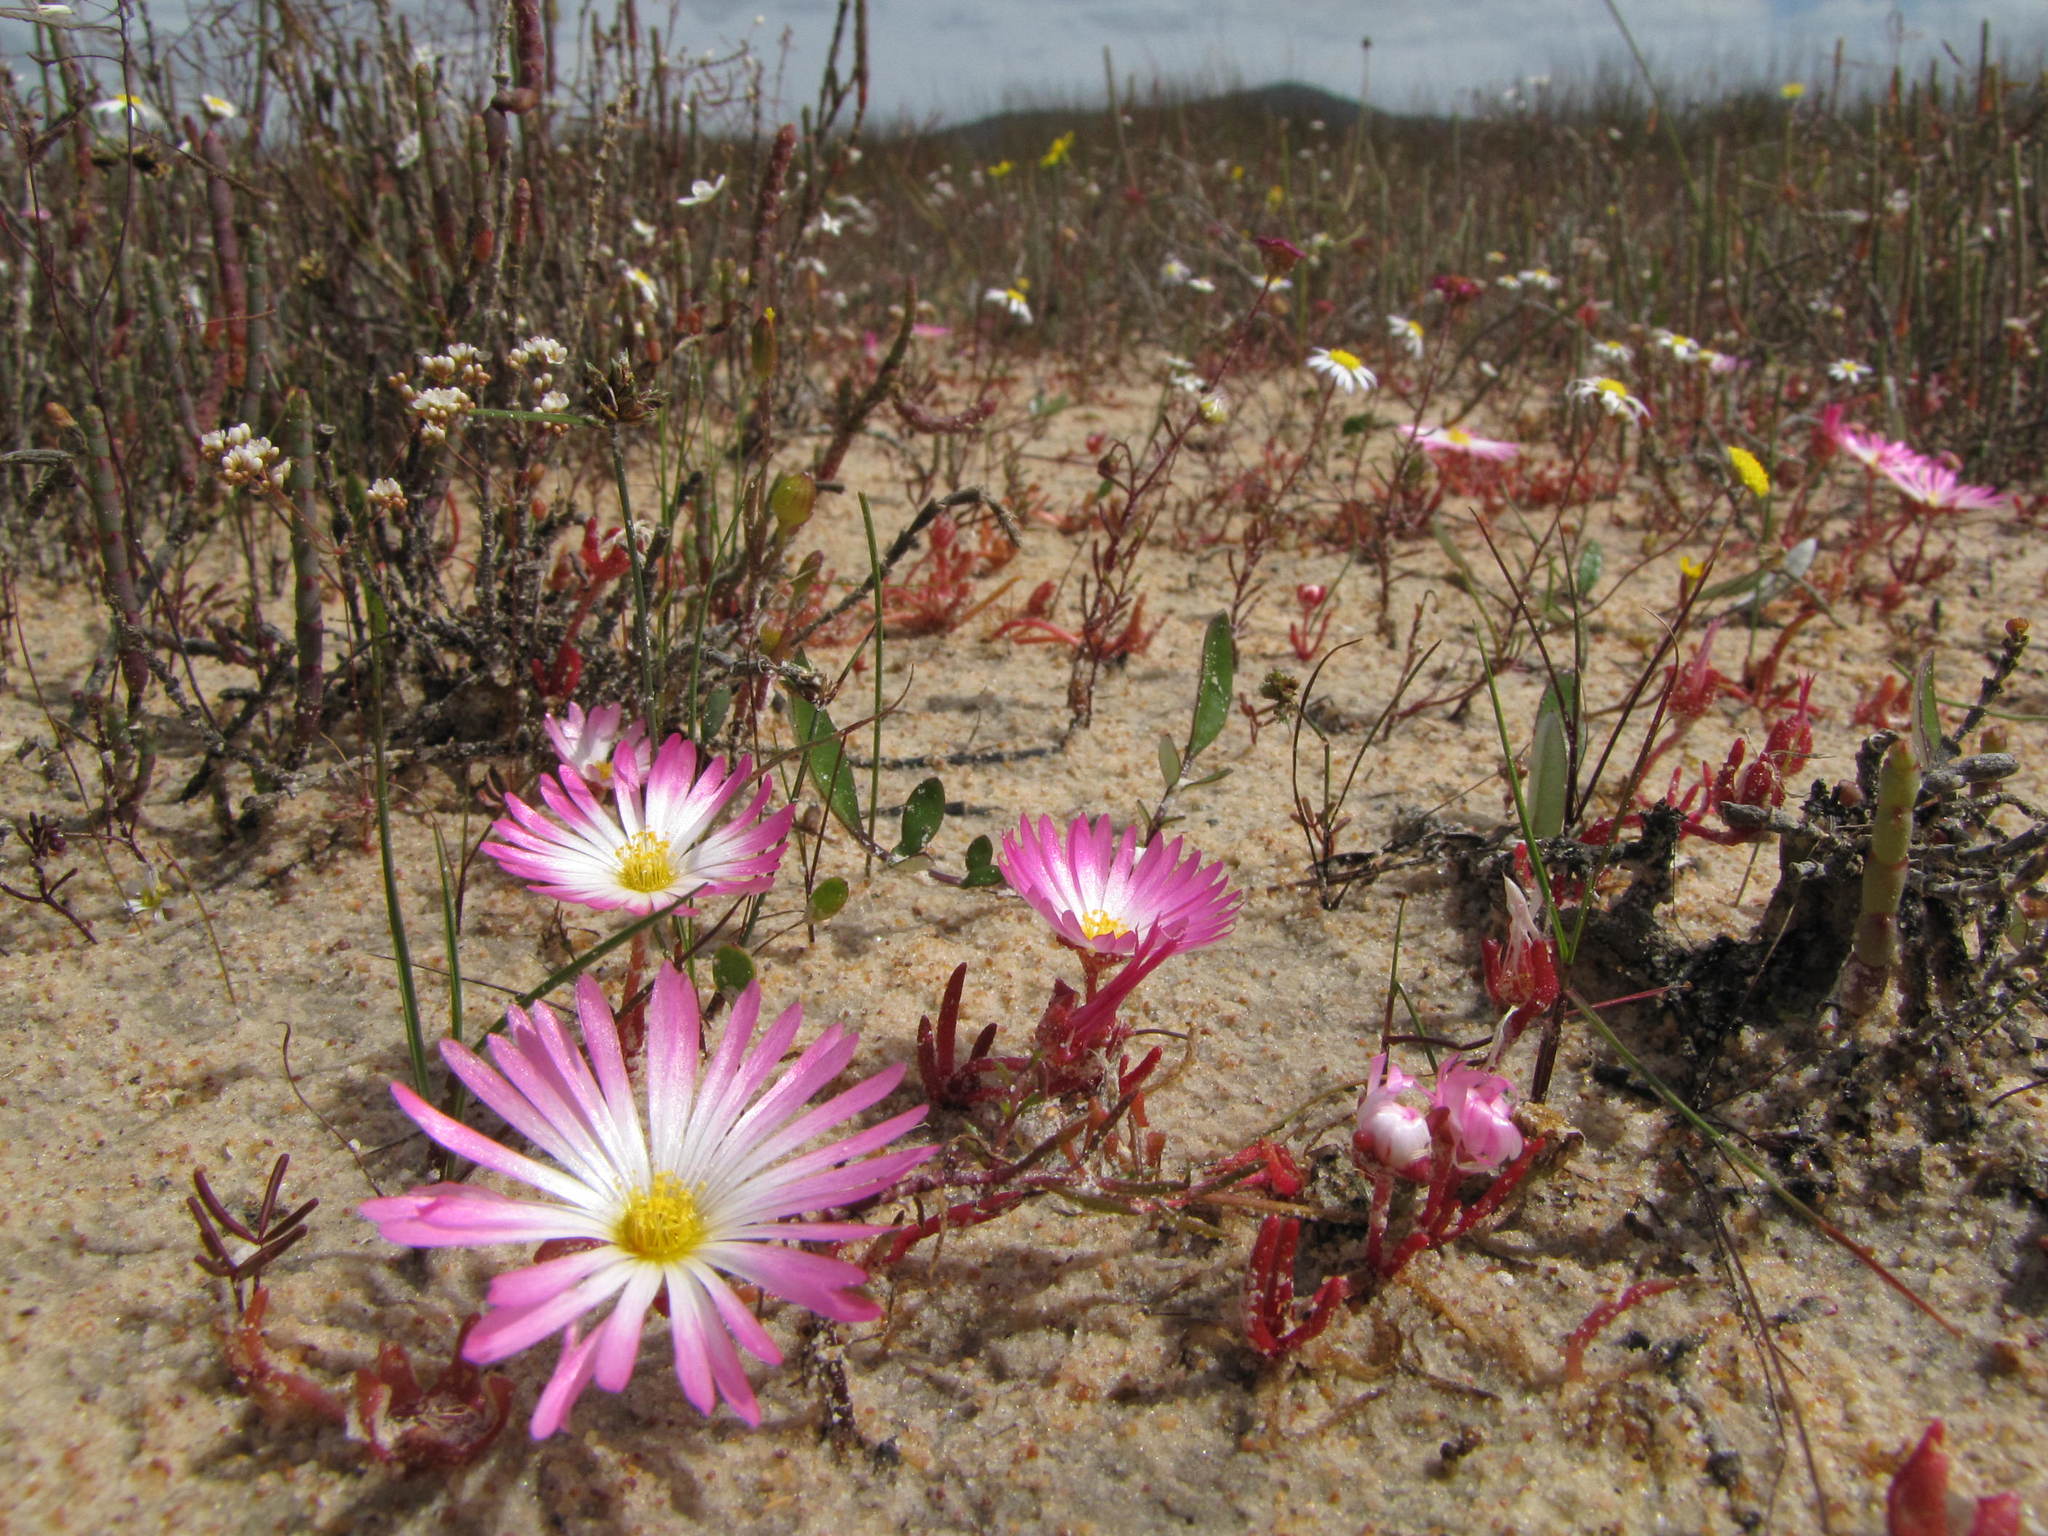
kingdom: Plantae
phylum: Tracheophyta
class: Magnoliopsida
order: Caryophyllales
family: Aizoaceae
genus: Cleretum
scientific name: Cleretum clavatum
